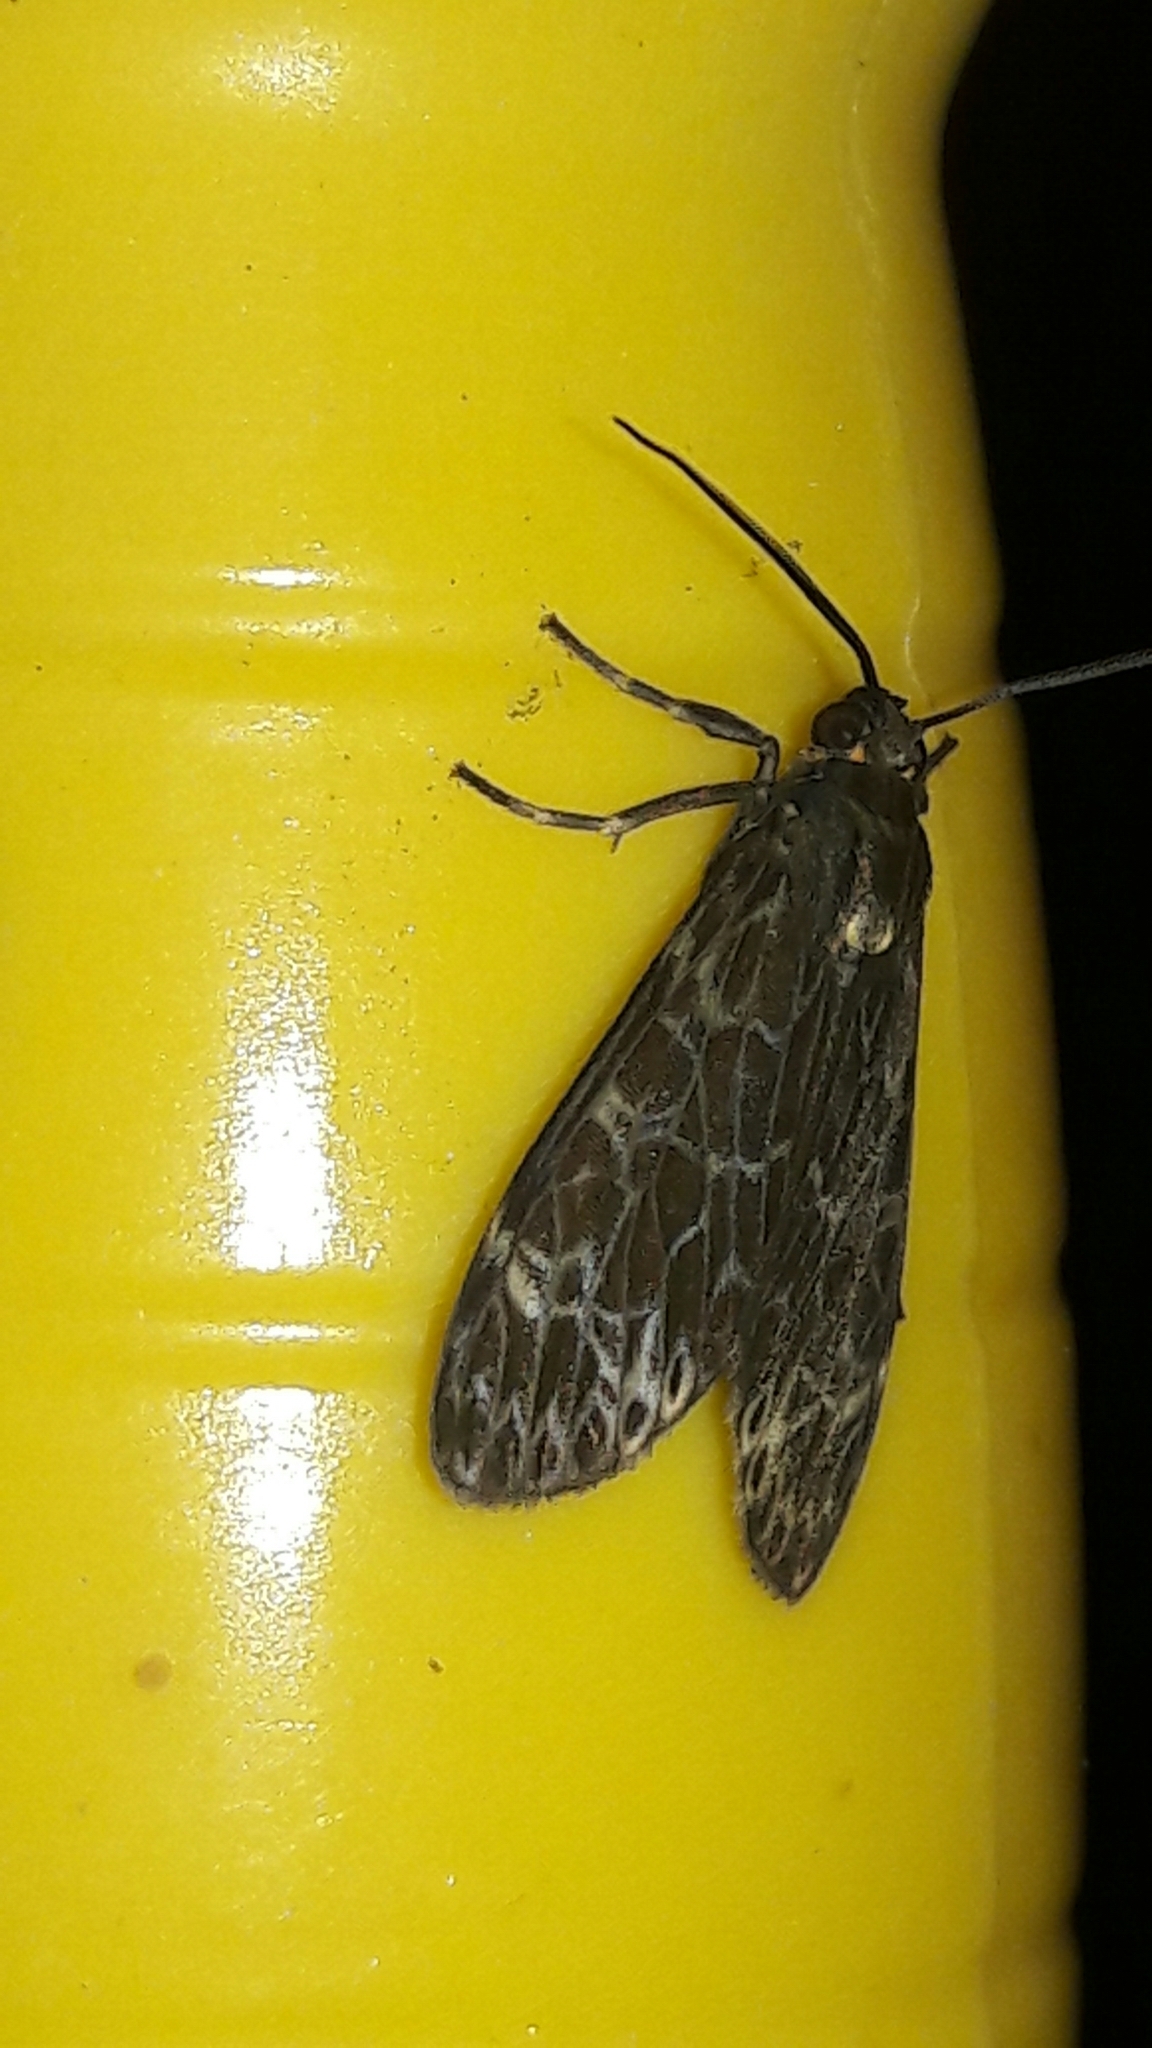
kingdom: Animalia
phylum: Arthropoda
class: Insecta
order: Lepidoptera
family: Erebidae
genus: Eucereon
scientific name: Eucereon sylvius
